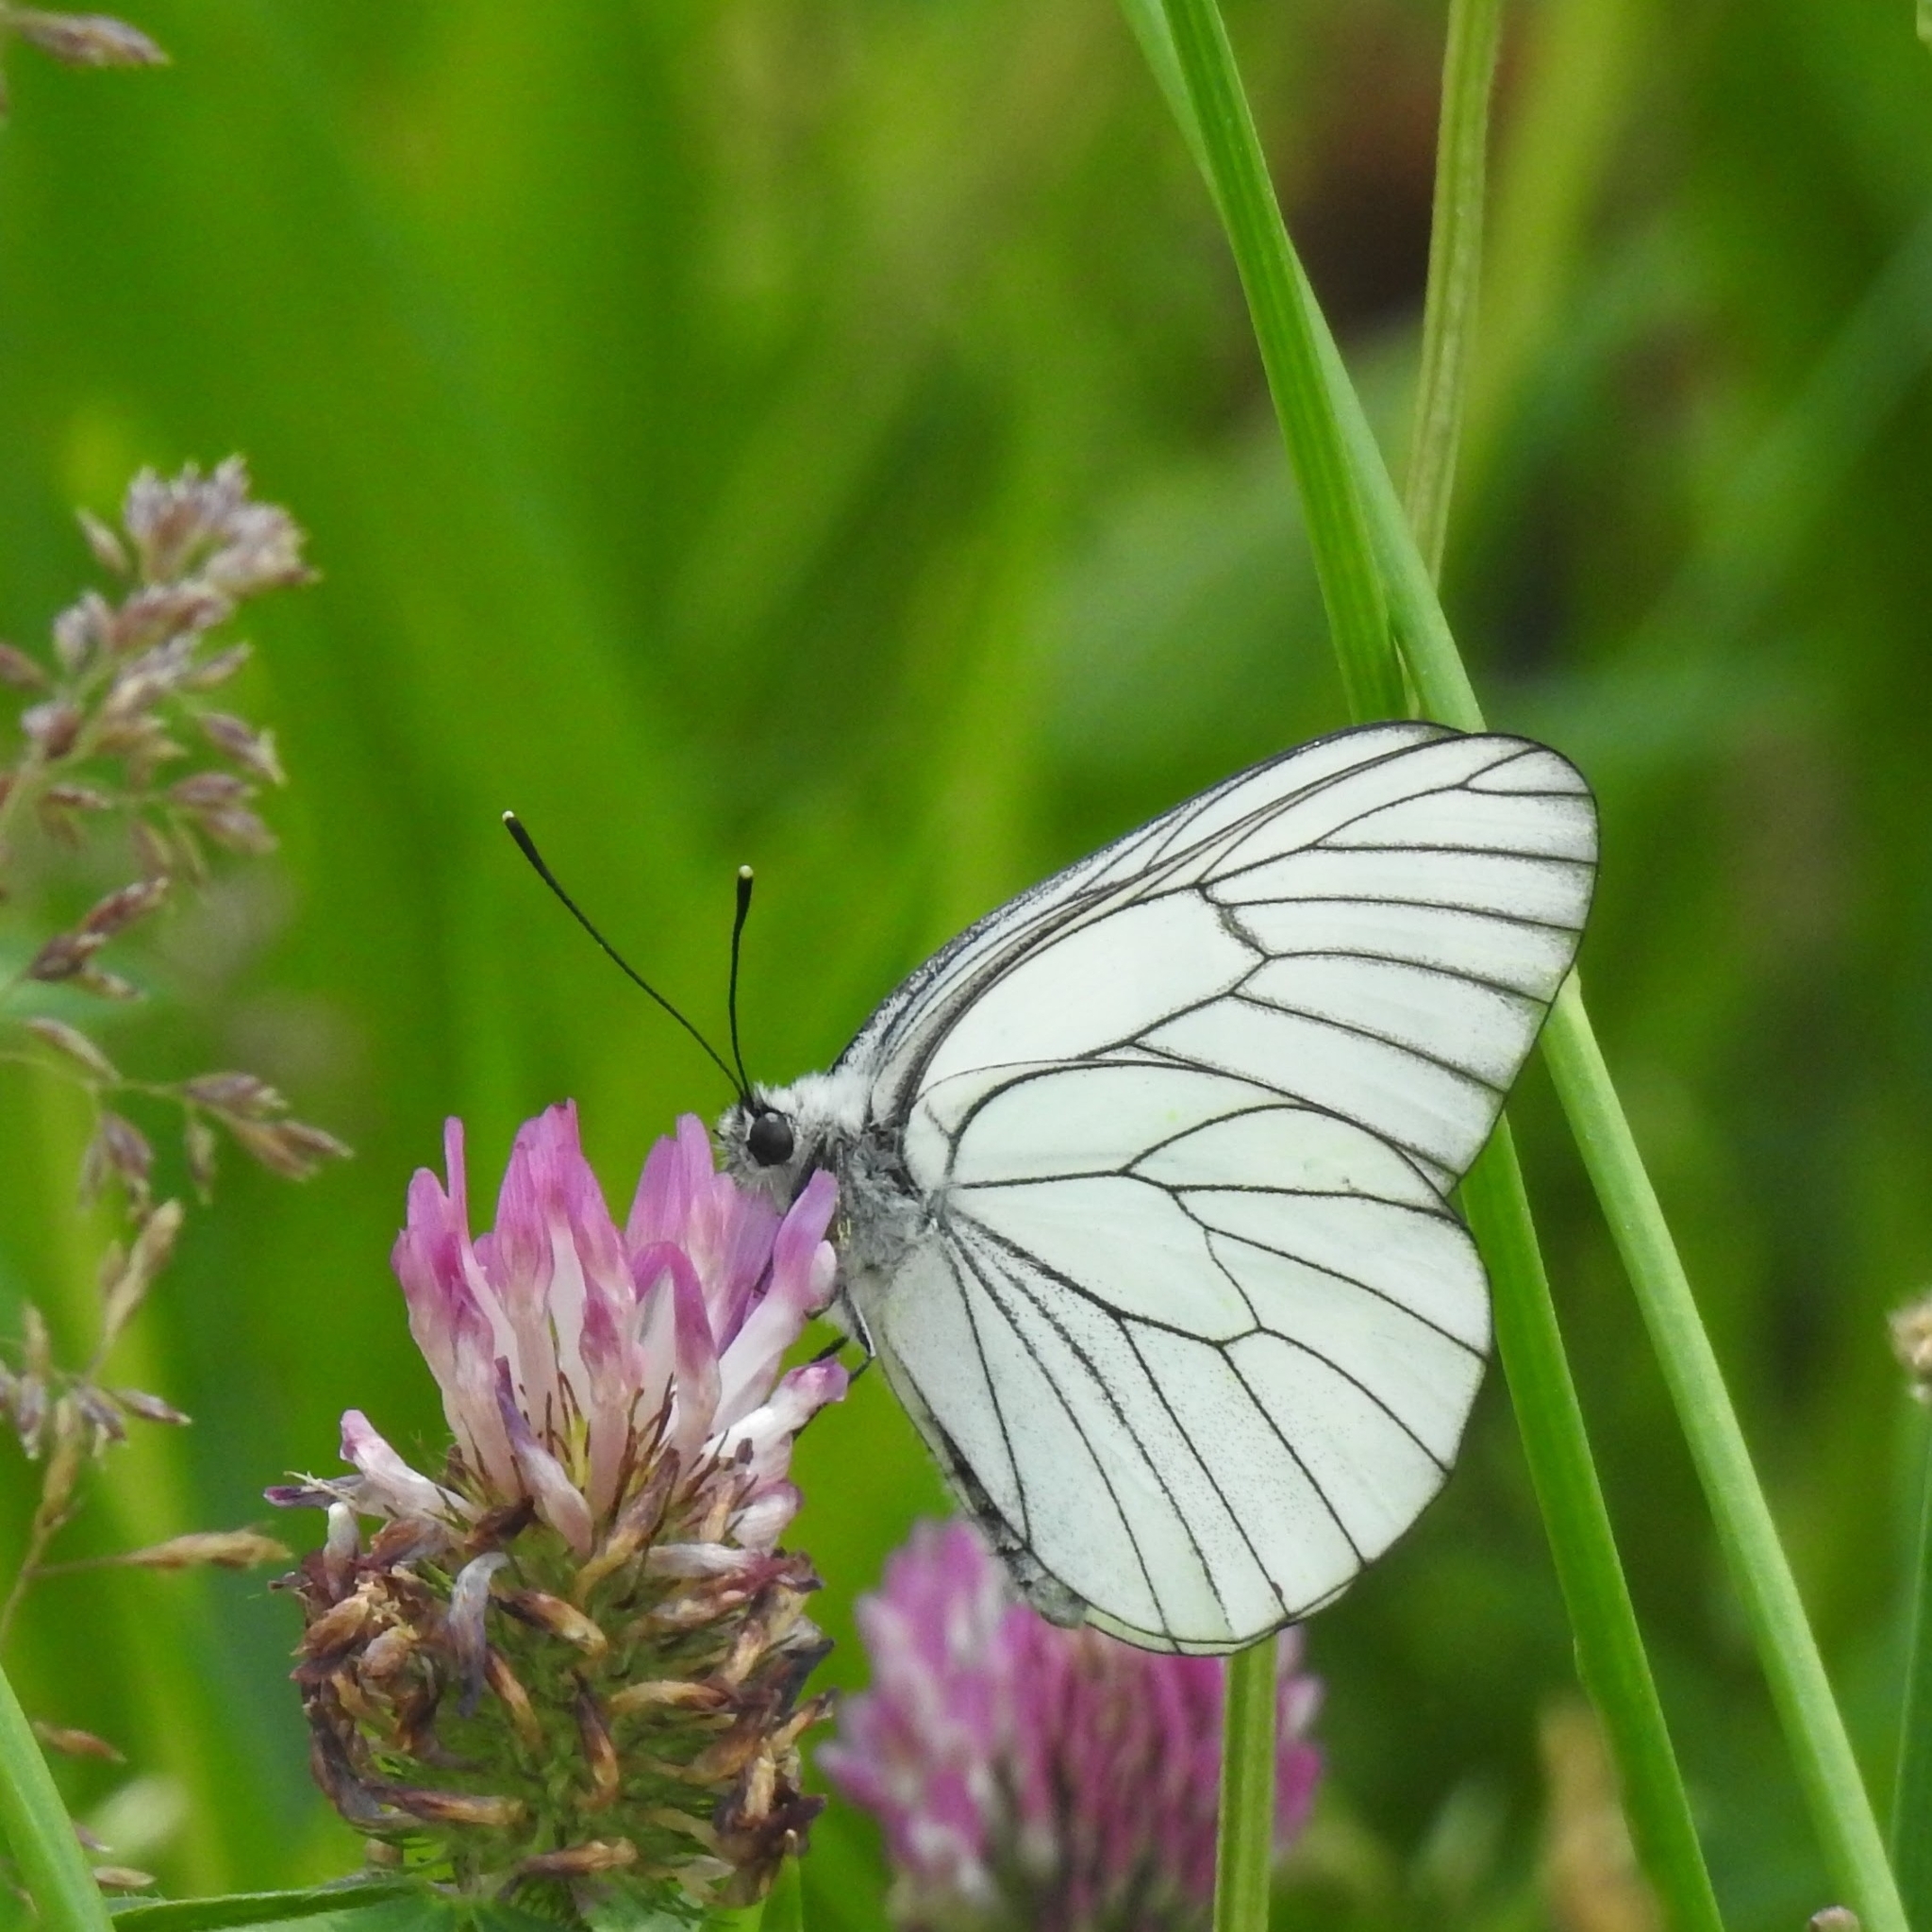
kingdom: Animalia
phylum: Arthropoda
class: Insecta
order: Lepidoptera
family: Pieridae
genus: Aporia
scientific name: Aporia crataegi
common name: Black-veined white
